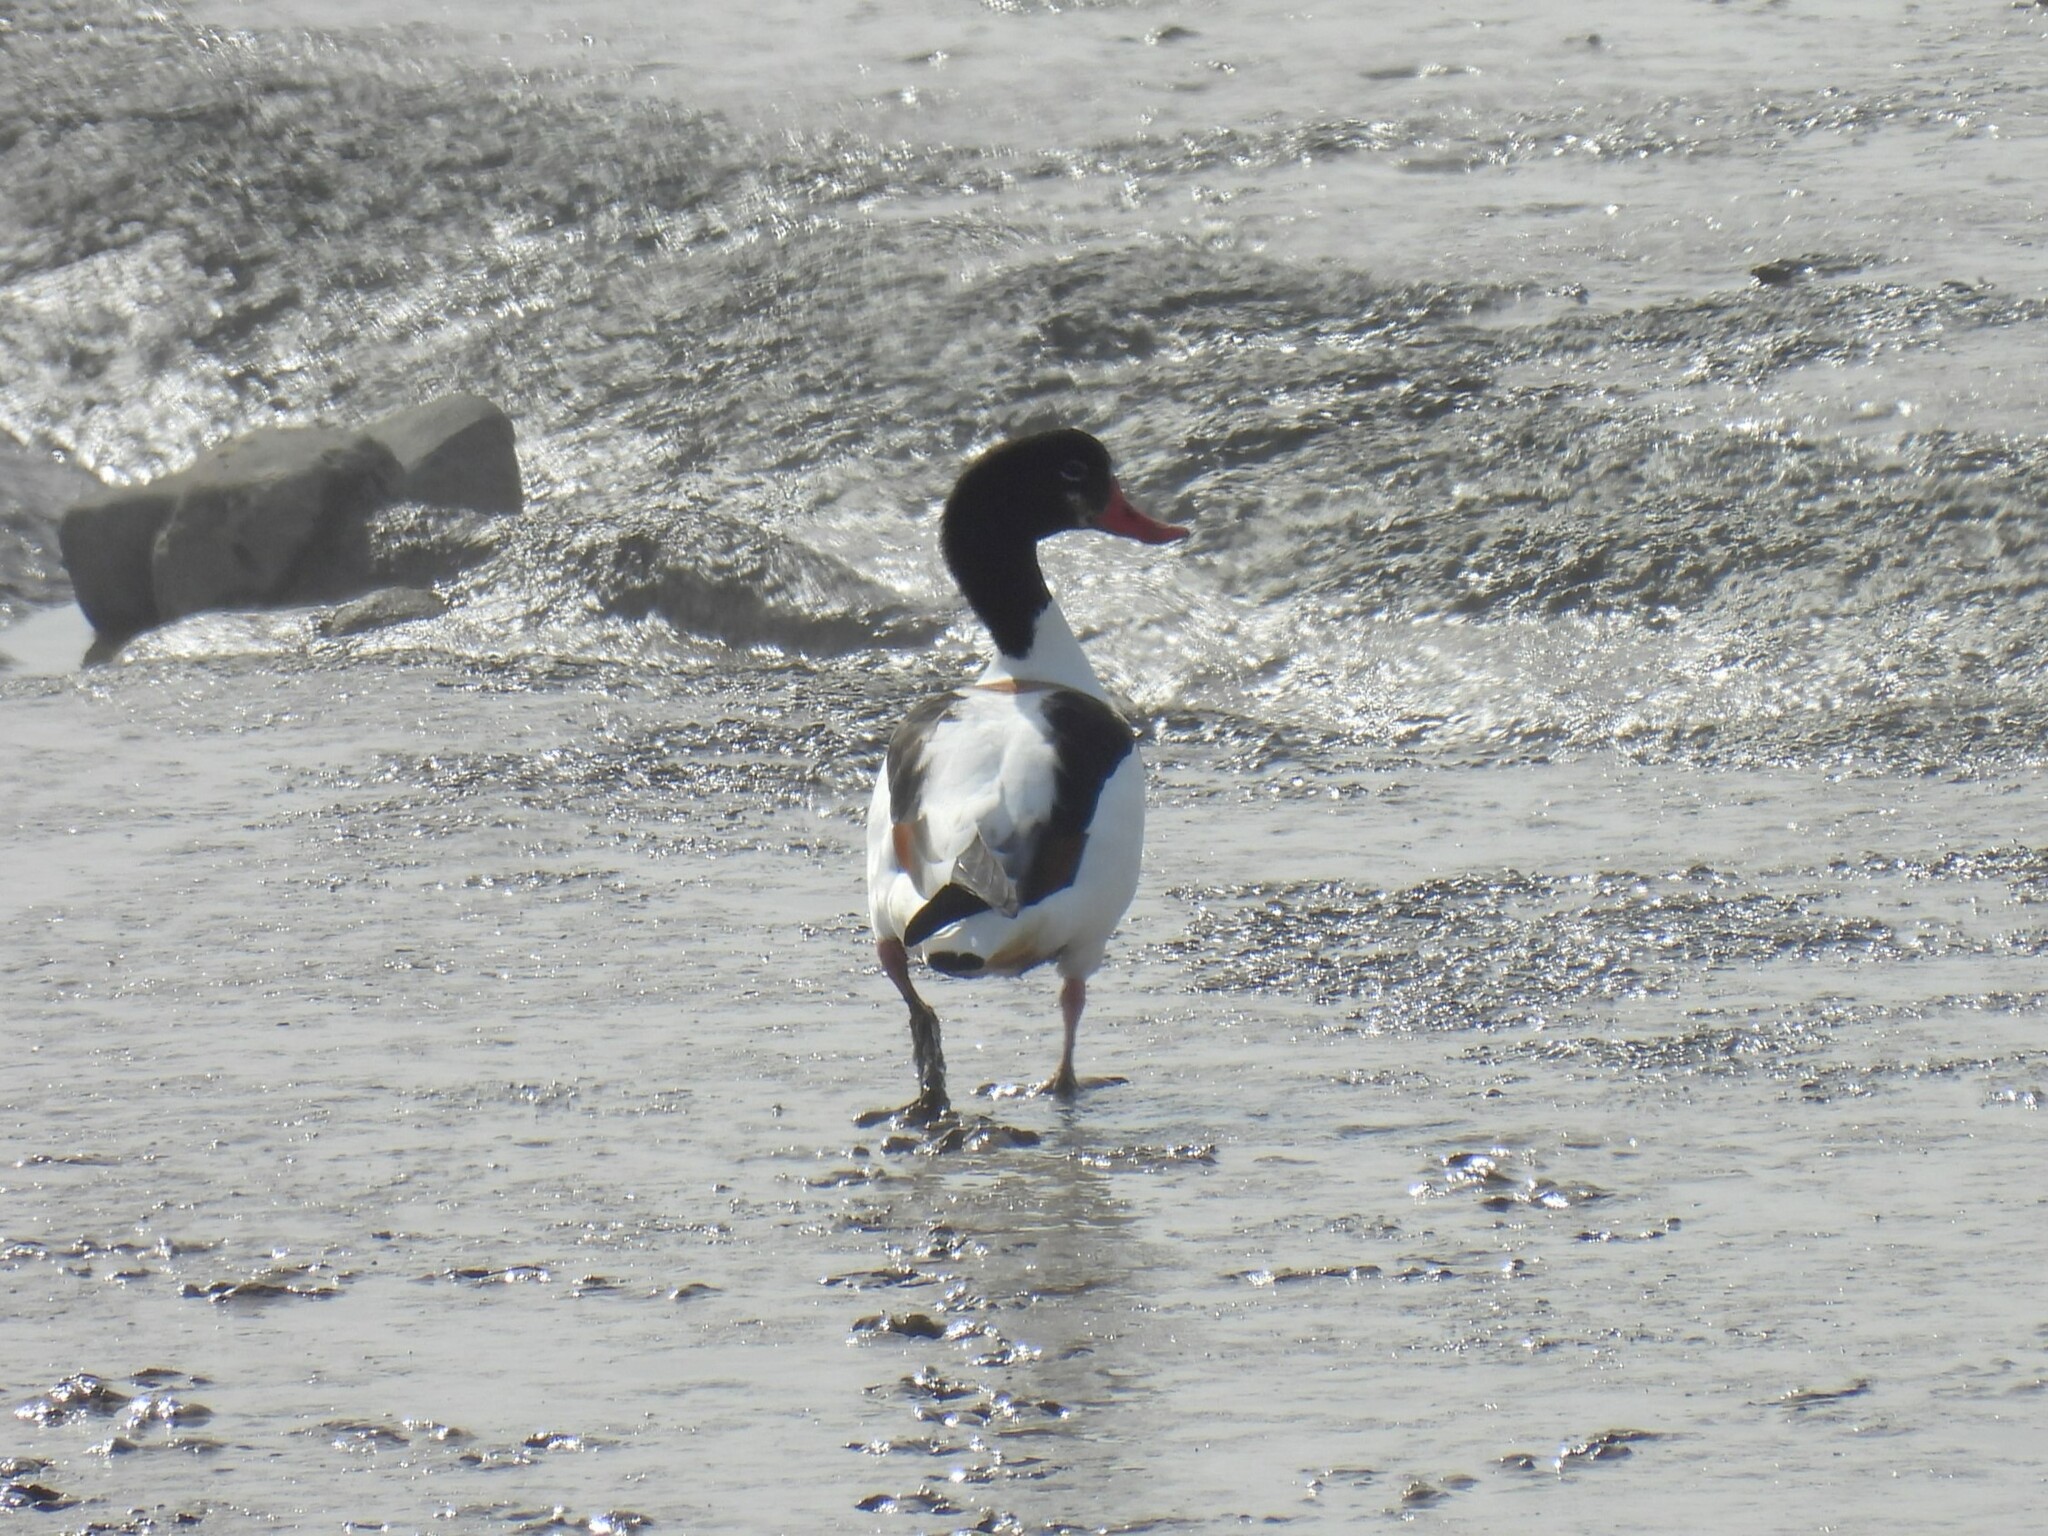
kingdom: Animalia
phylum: Chordata
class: Aves
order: Anseriformes
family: Anatidae
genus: Tadorna
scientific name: Tadorna tadorna
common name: Common shelduck
